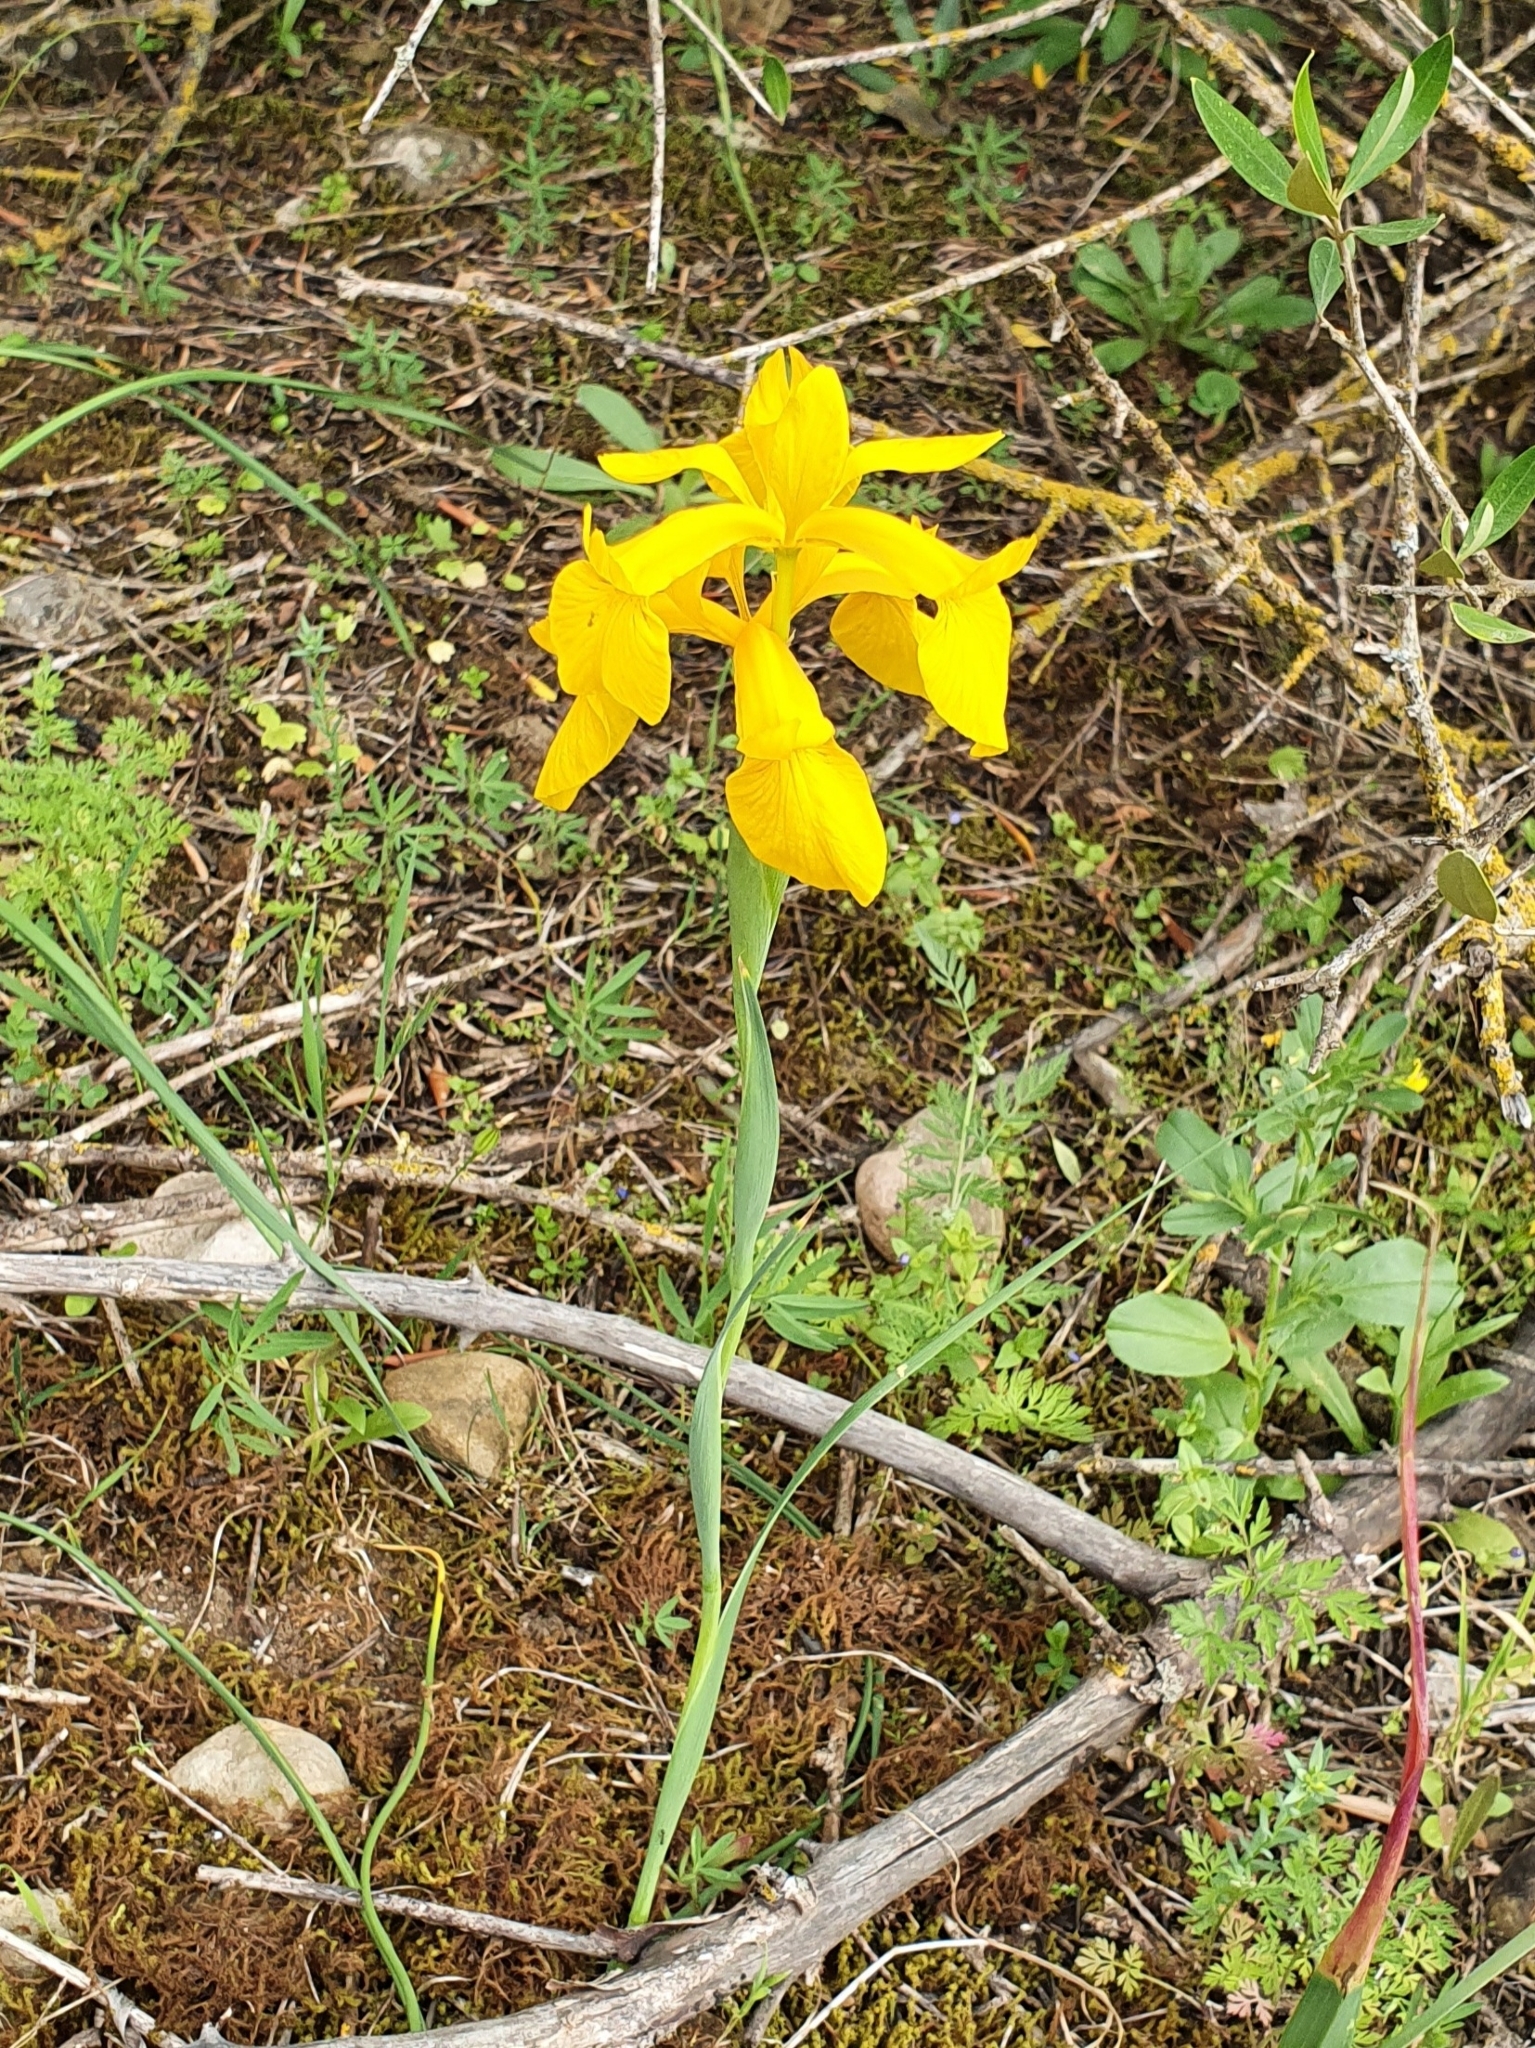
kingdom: Plantae
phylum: Tracheophyta
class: Liliopsida
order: Asparagales
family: Iridaceae
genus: Iris
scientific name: Iris juncea
